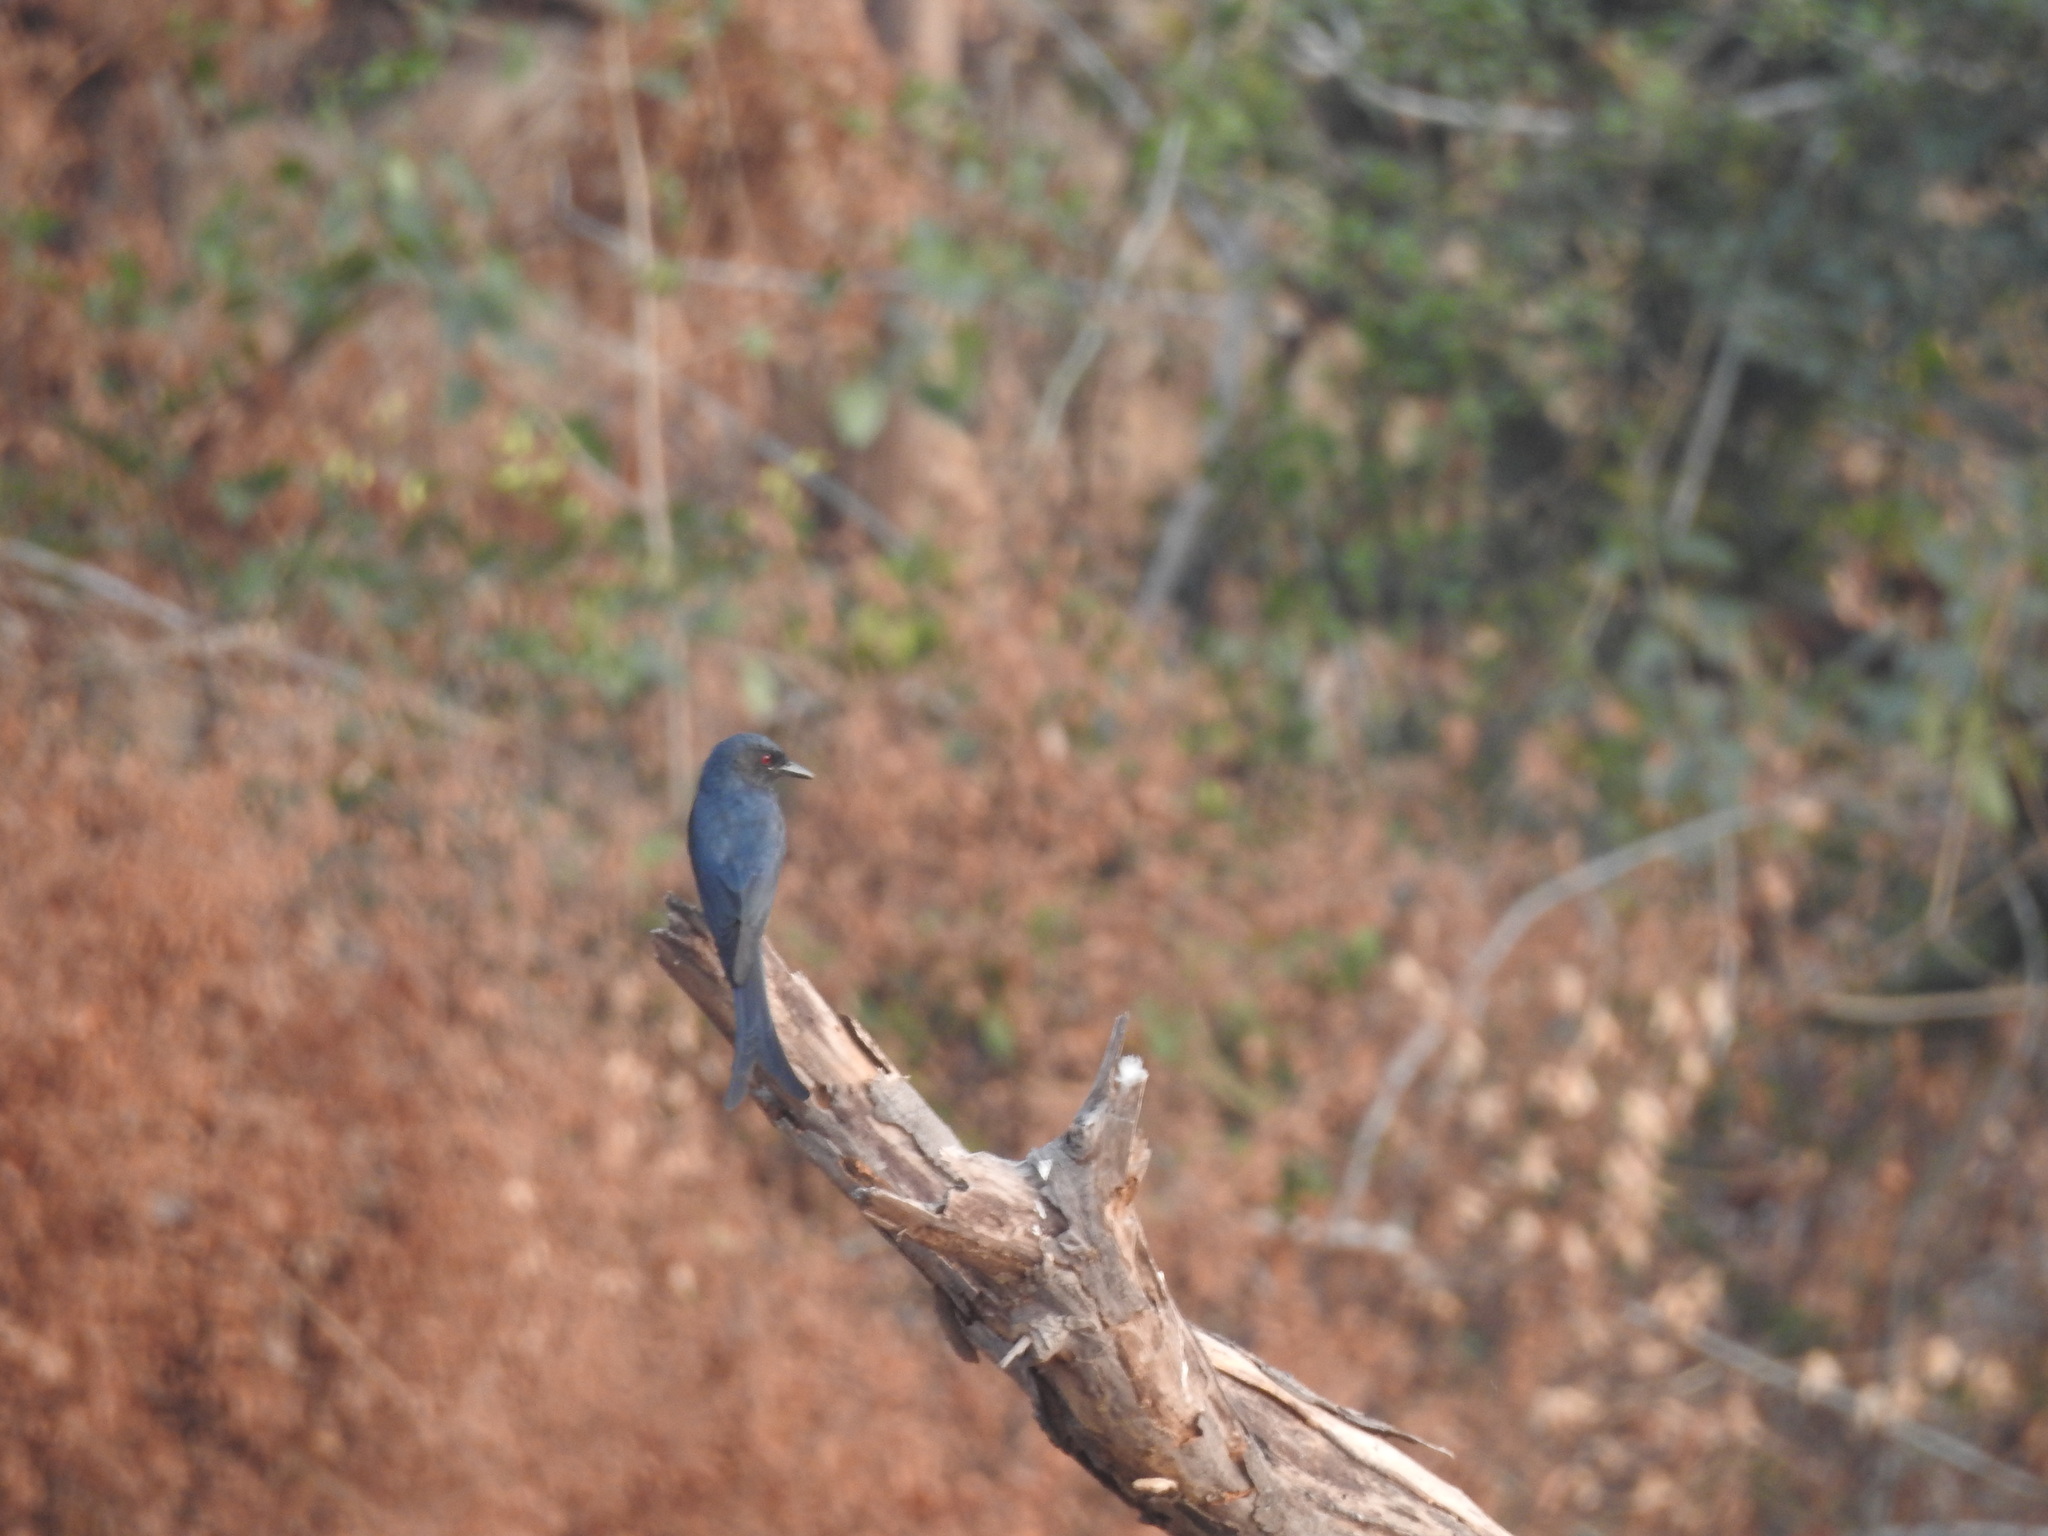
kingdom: Animalia
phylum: Chordata
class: Aves
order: Passeriformes
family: Dicruridae
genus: Dicrurus
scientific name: Dicrurus leucophaeus
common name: Ashy drongo
